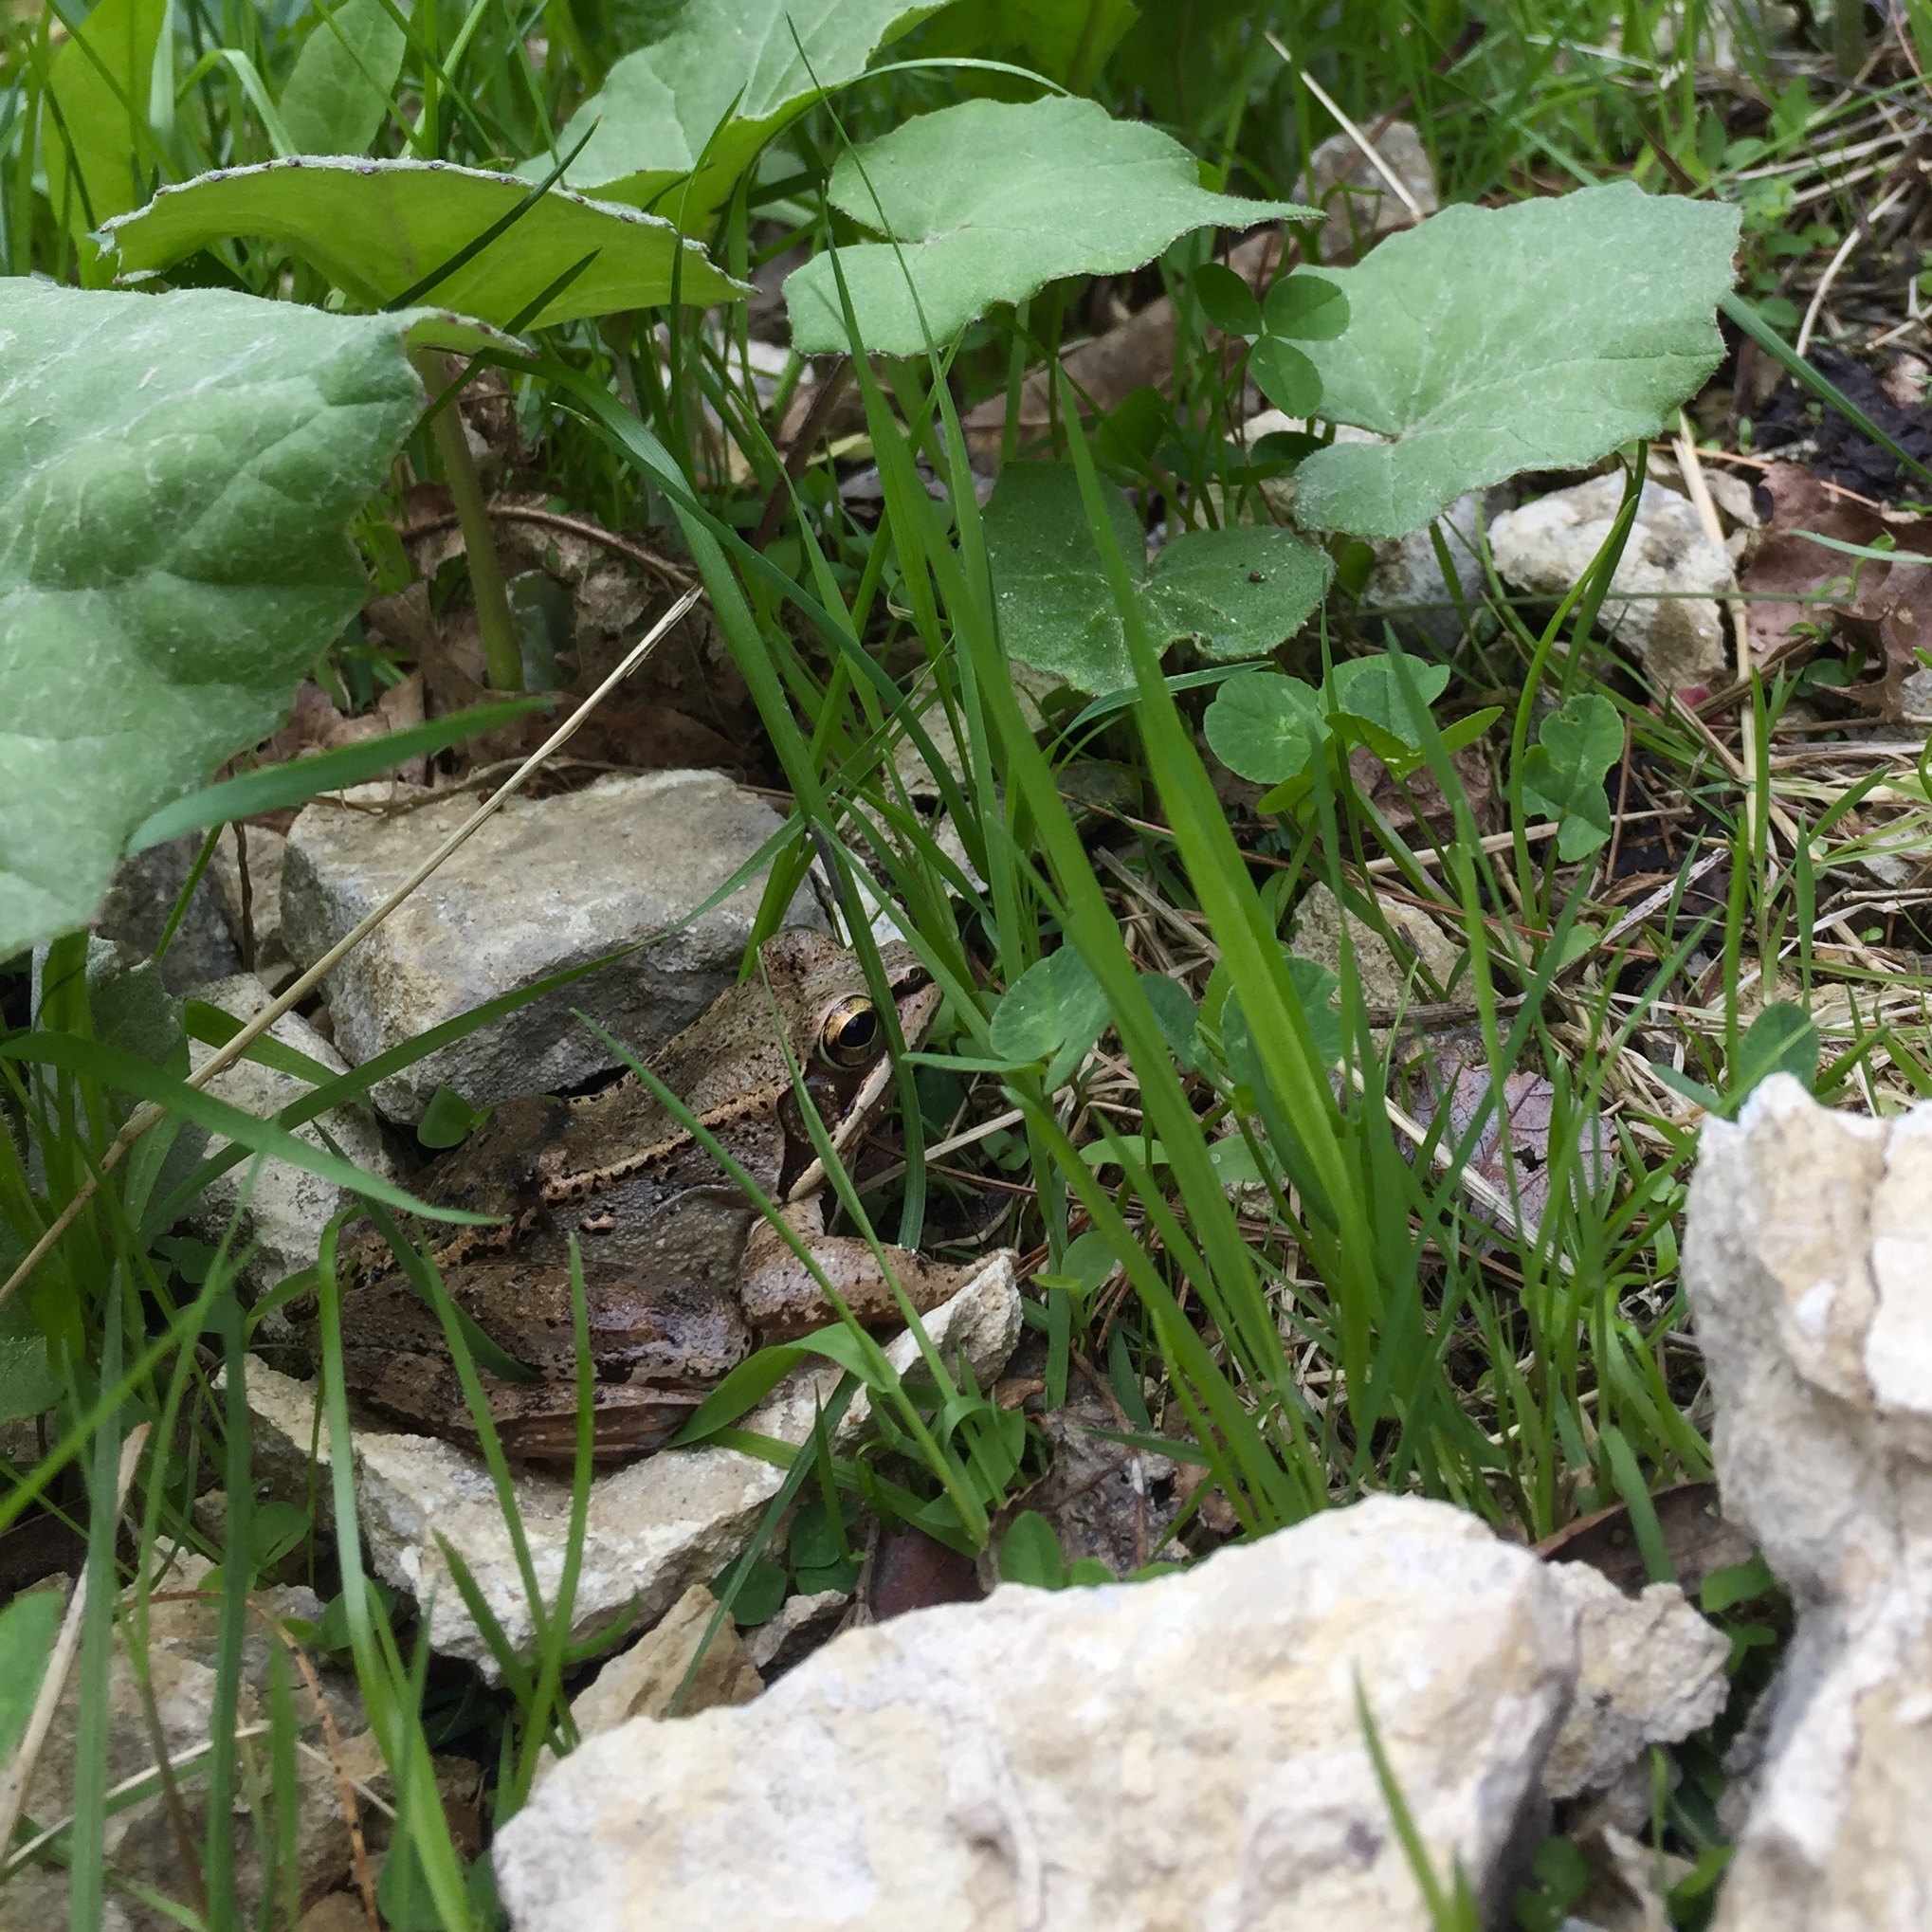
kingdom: Animalia
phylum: Chordata
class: Amphibia
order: Anura
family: Ranidae
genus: Lithobates
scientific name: Lithobates sylvaticus
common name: Wood frog
